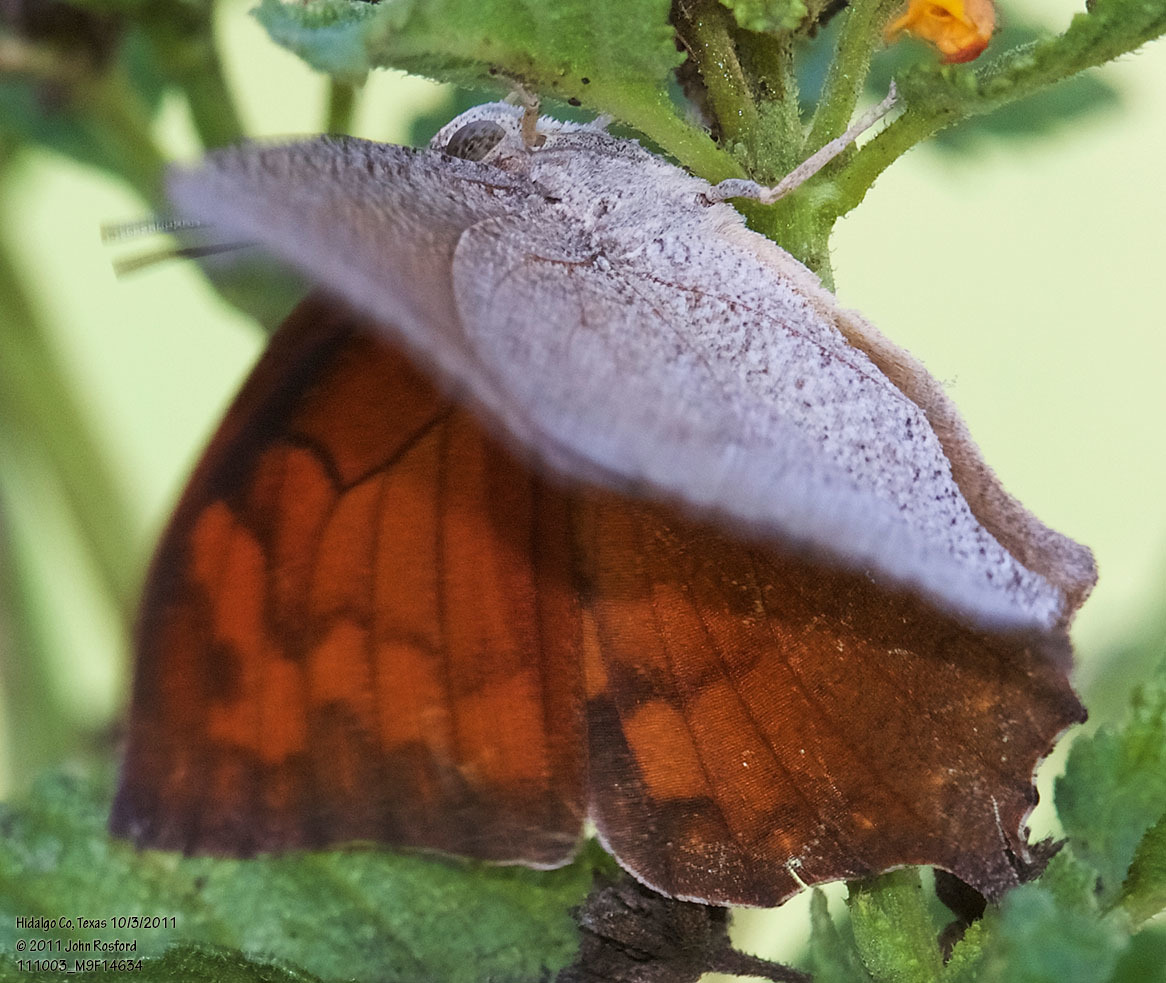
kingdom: Animalia
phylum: Arthropoda
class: Insecta
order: Lepidoptera
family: Nymphalidae
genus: Anaea
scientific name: Anaea aidea
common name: Tropical leafwing
